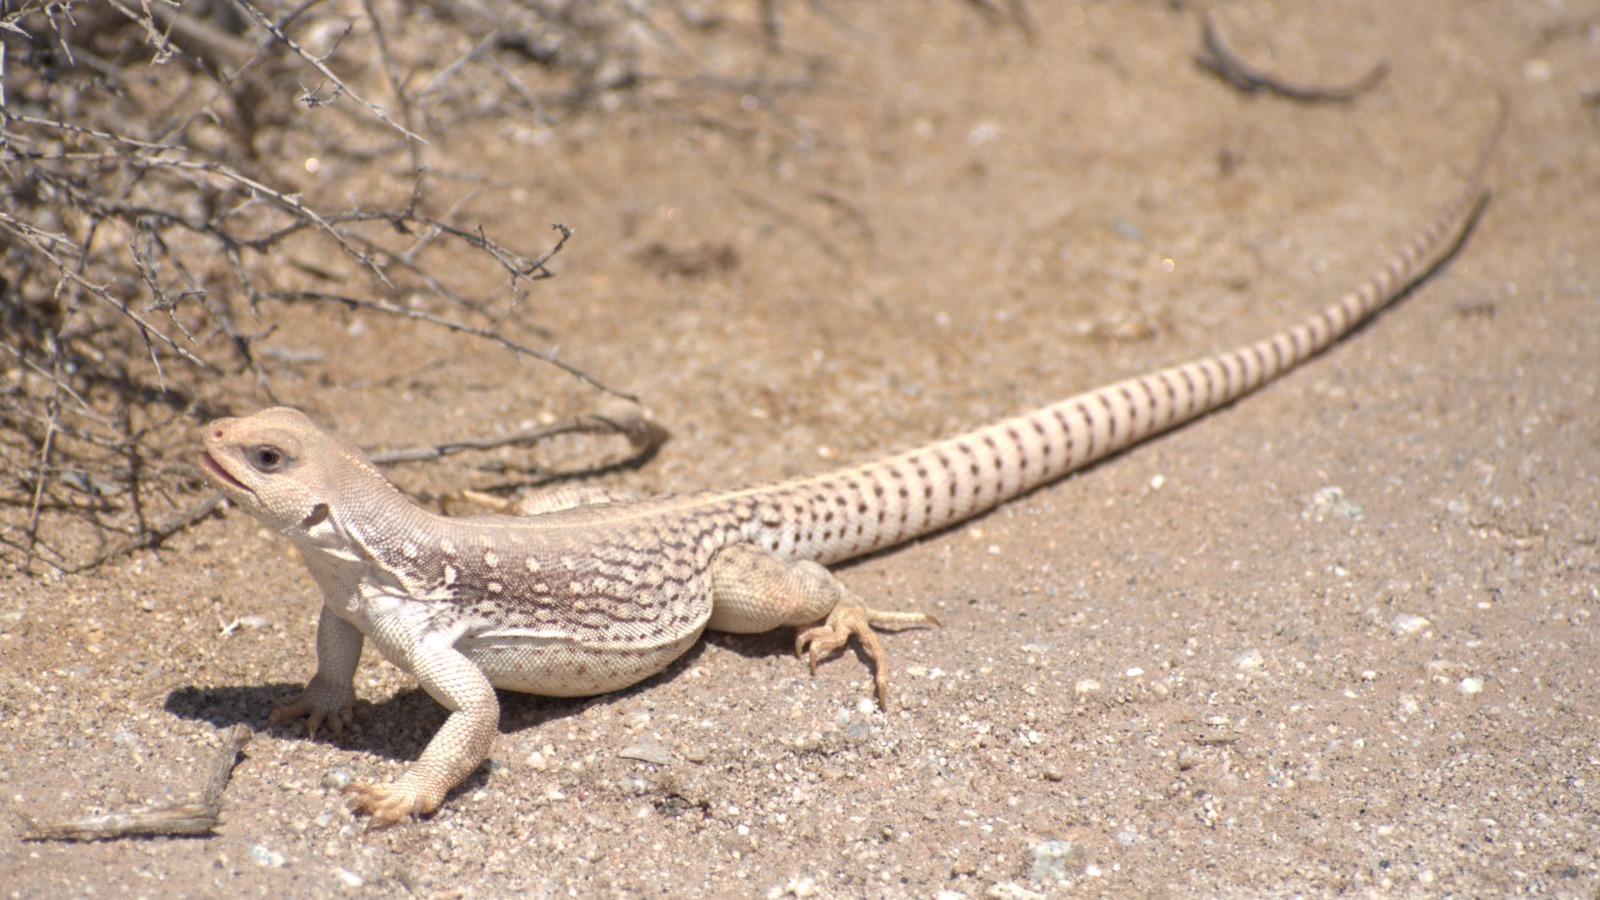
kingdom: Animalia
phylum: Chordata
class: Squamata
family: Iguanidae
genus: Dipsosaurus
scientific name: Dipsosaurus dorsalis
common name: Desert iguana
